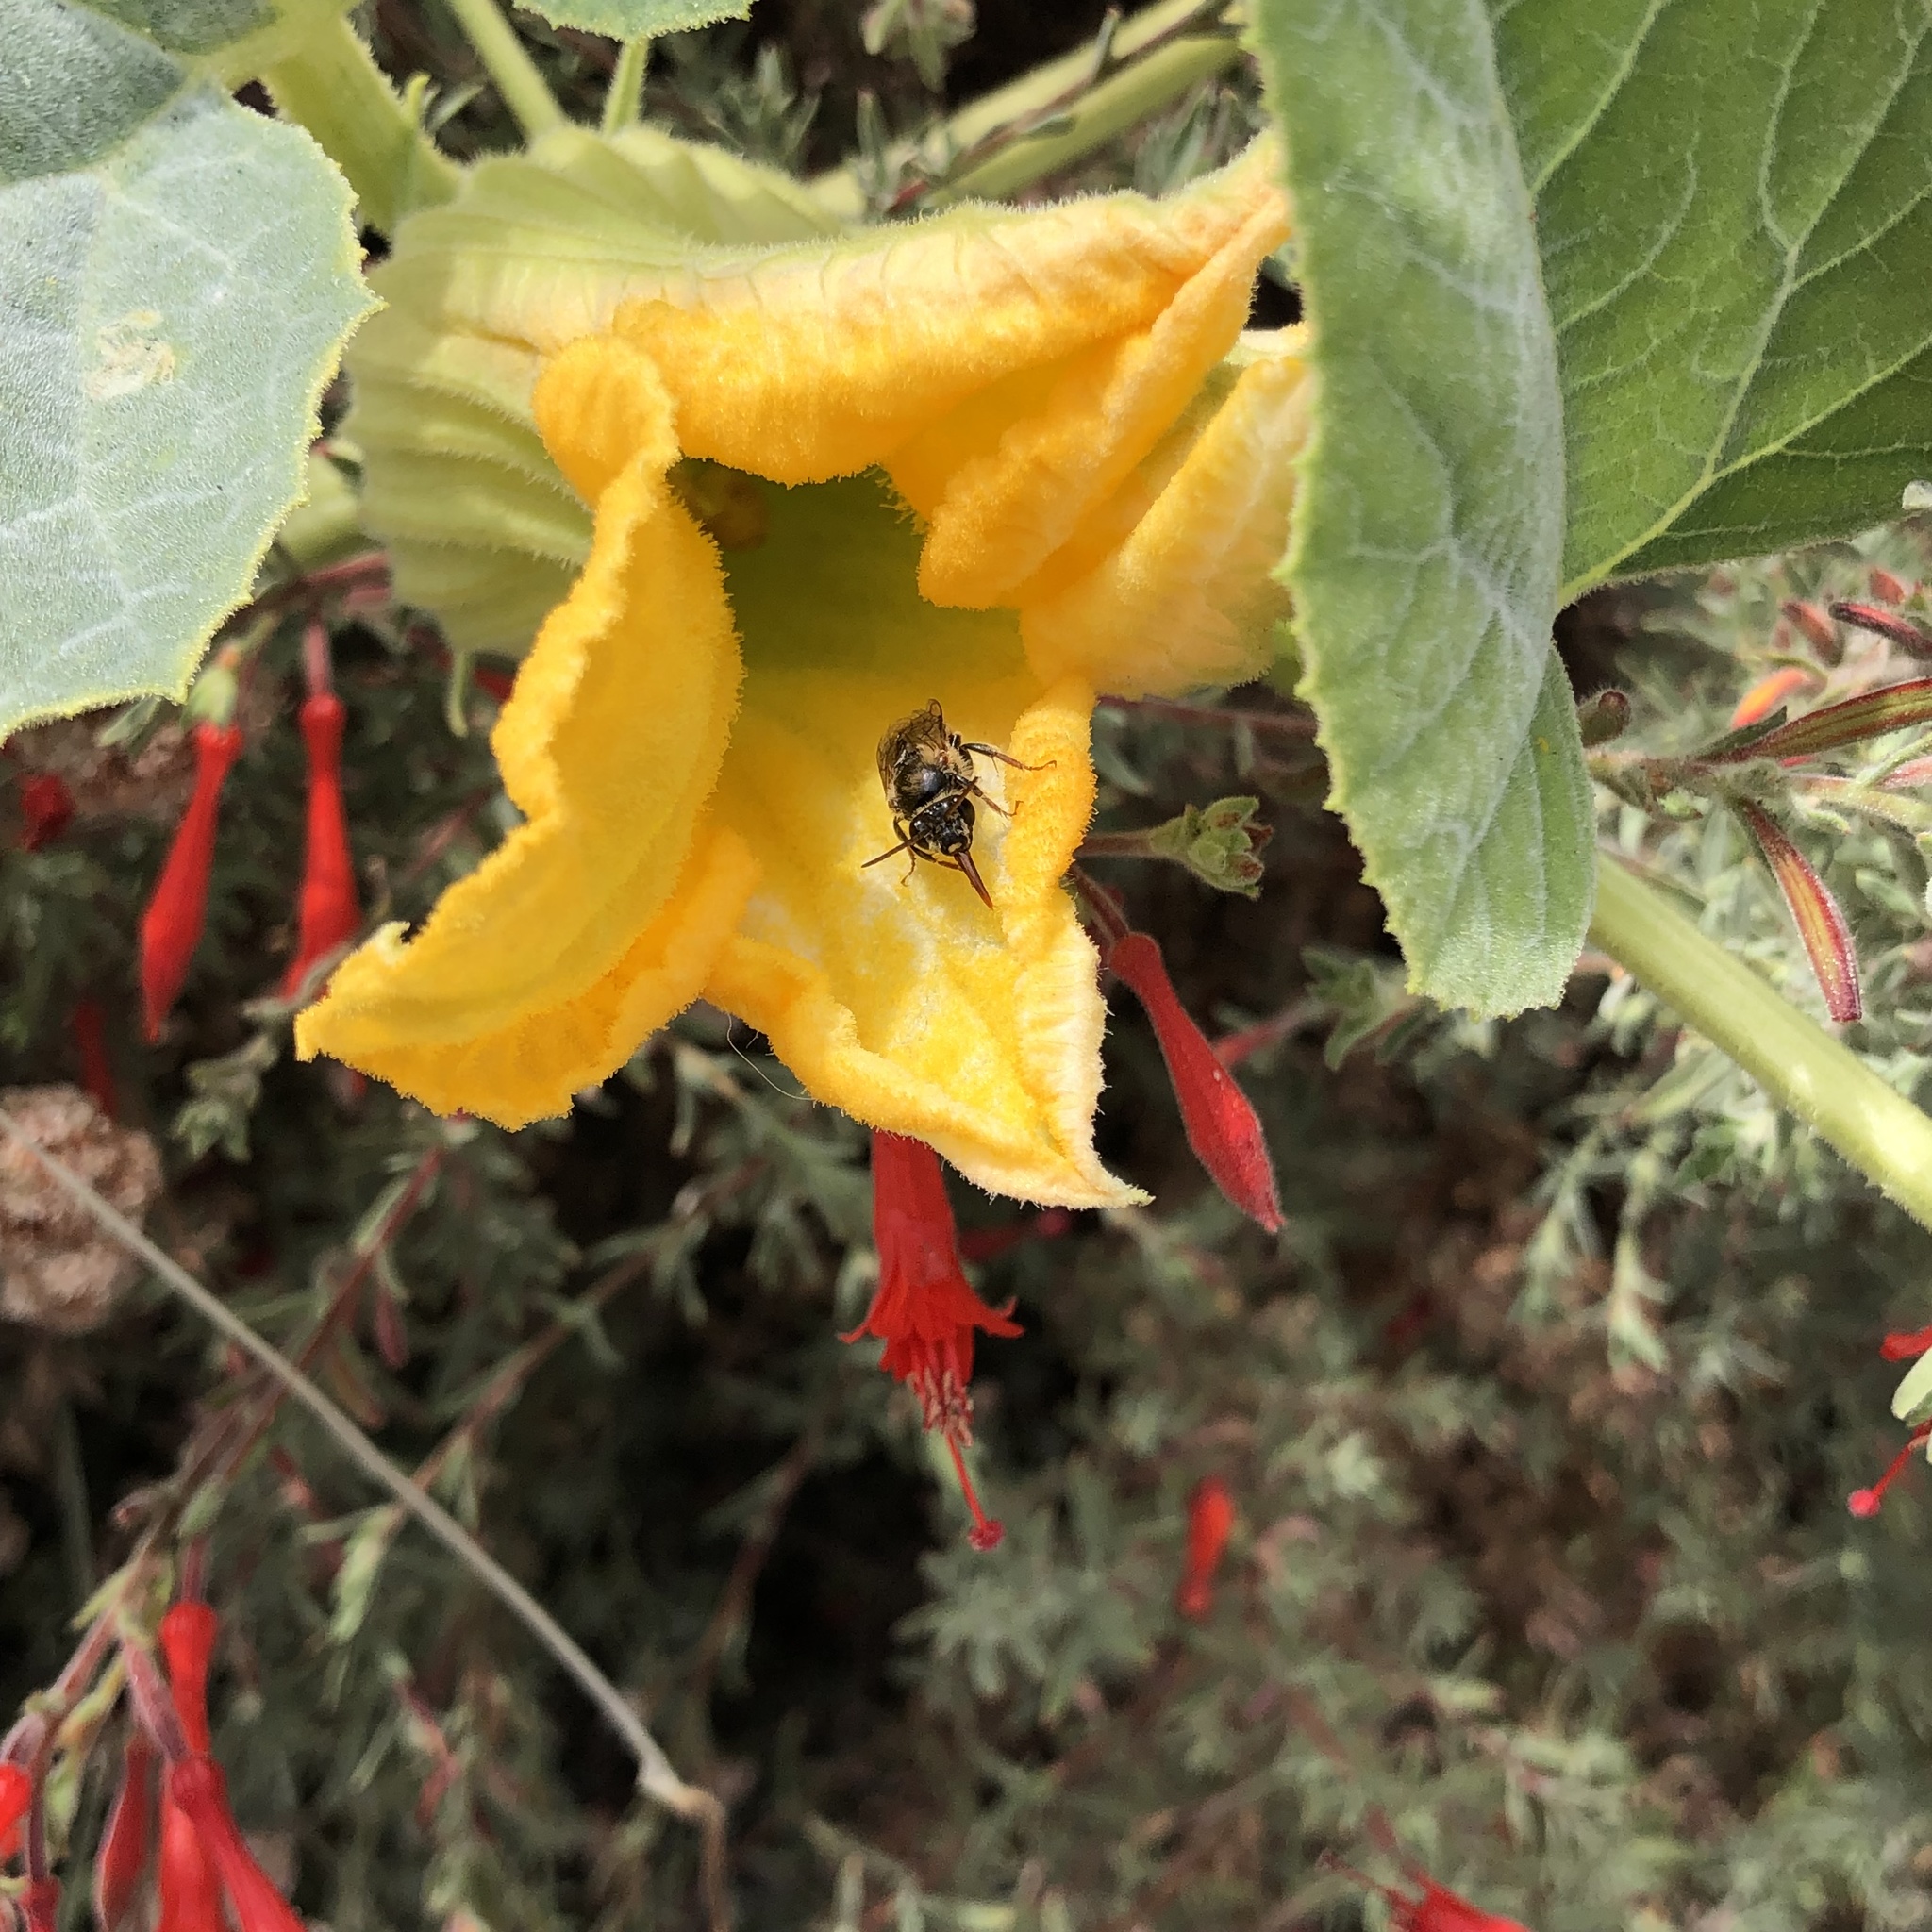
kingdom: Animalia
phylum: Arthropoda
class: Insecta
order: Hymenoptera
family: Apidae
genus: Peponapis
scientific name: Peponapis pruinosa
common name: Pruinose squash bee
